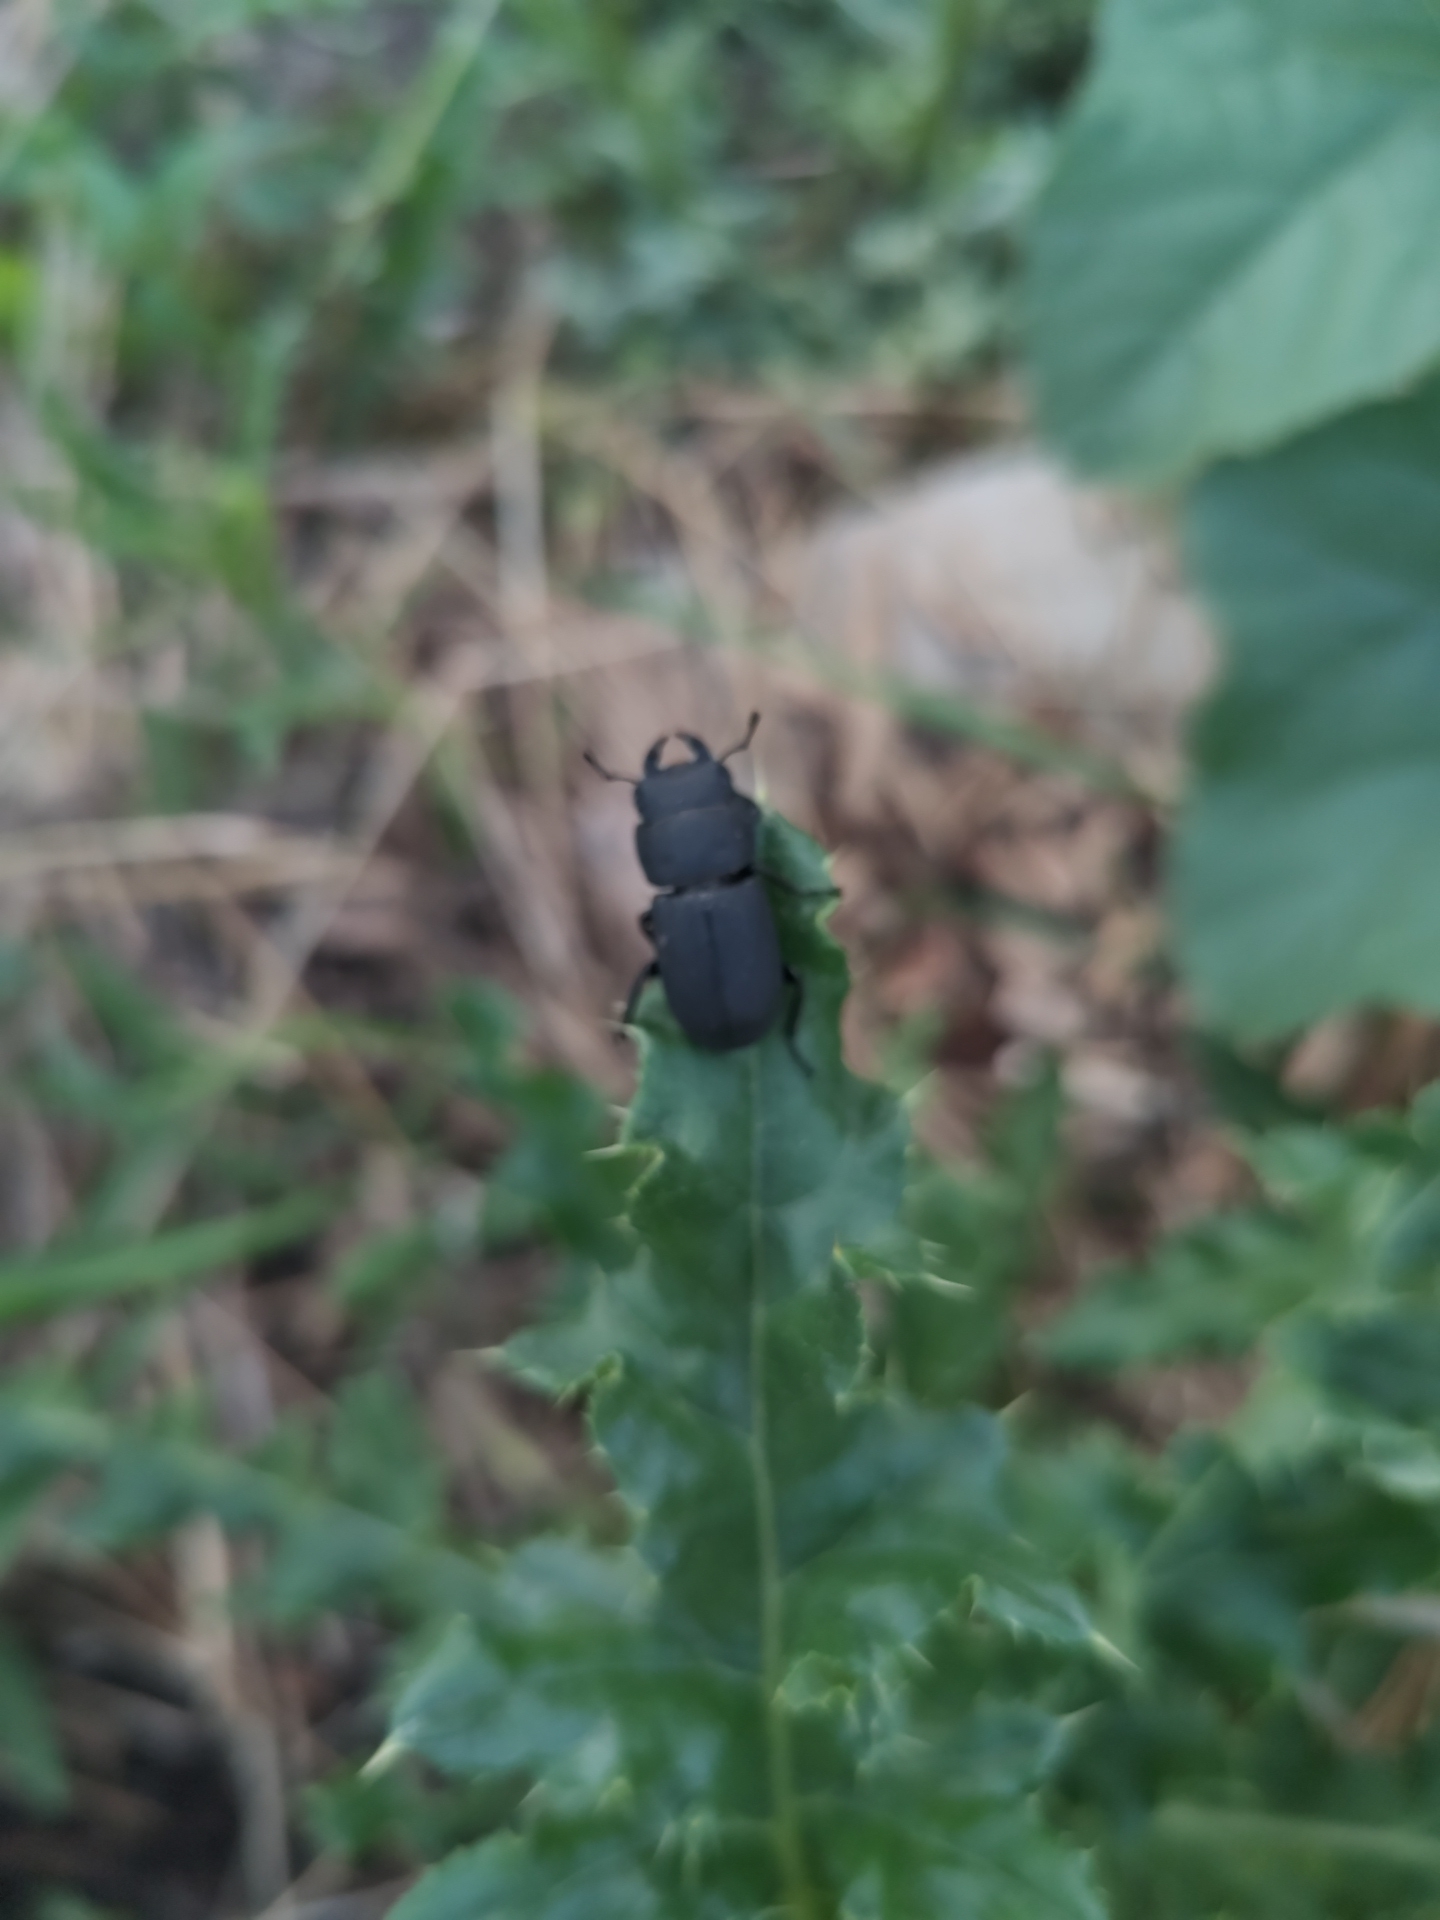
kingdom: Animalia
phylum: Arthropoda
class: Insecta
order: Coleoptera
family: Lucanidae
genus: Dorcus
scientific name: Dorcus parallelipipedus
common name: Lesser stag beetle
